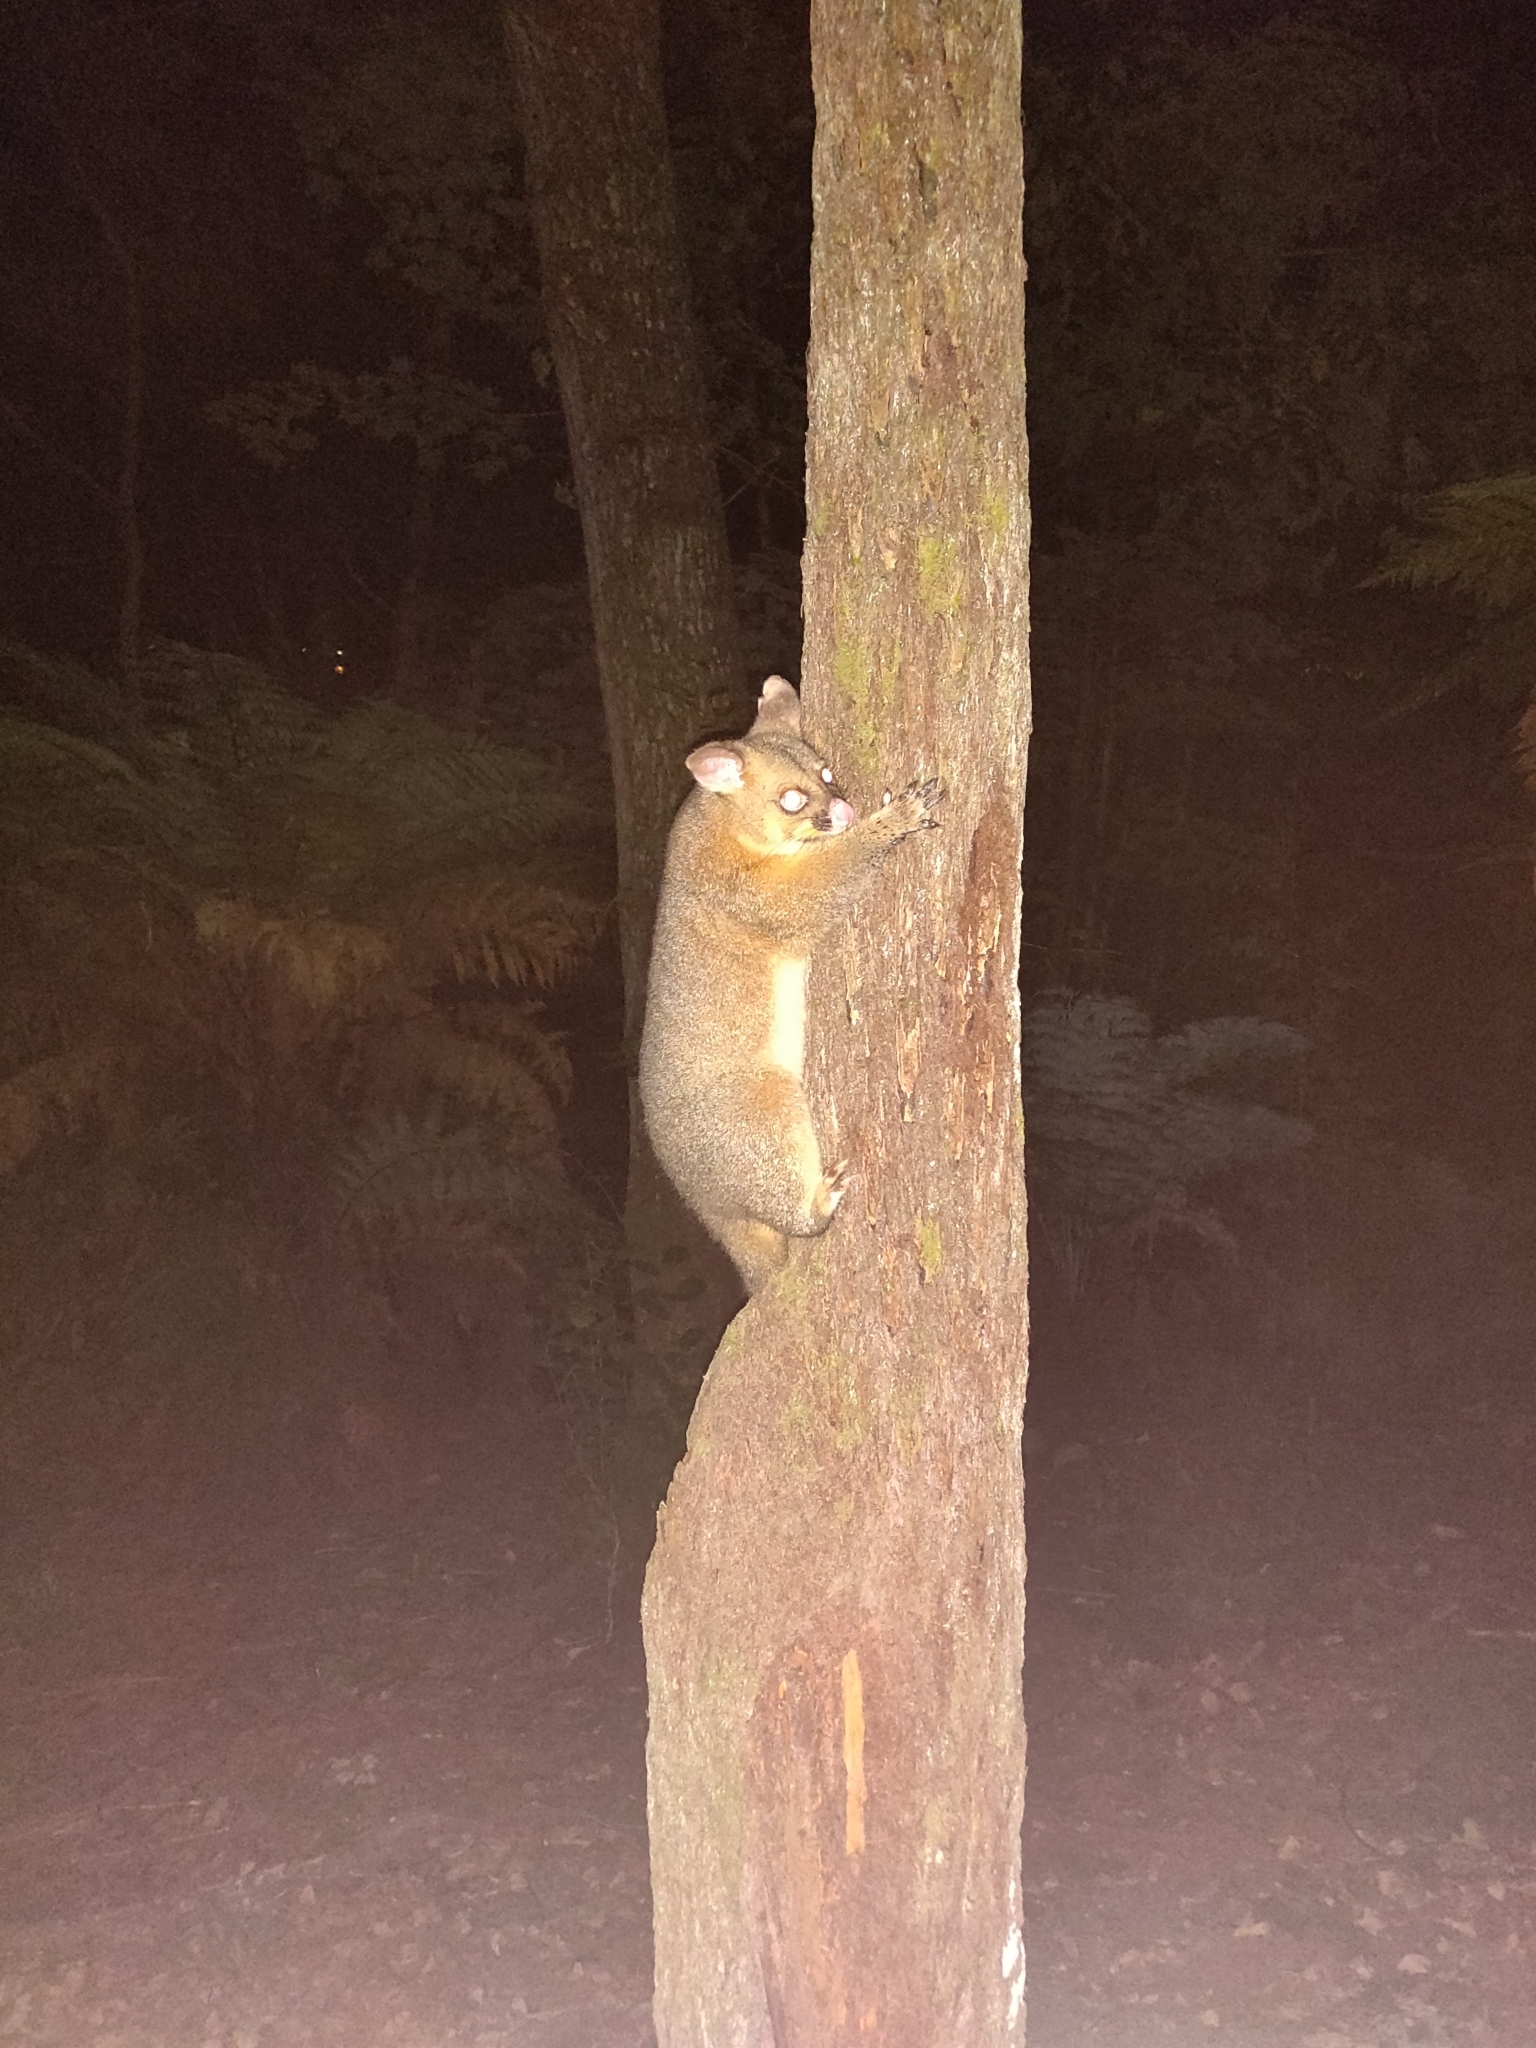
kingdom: Animalia
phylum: Chordata
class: Mammalia
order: Diprotodontia
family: Phalangeridae
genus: Trichosurus
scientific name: Trichosurus vulpecula
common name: Common brushtail
